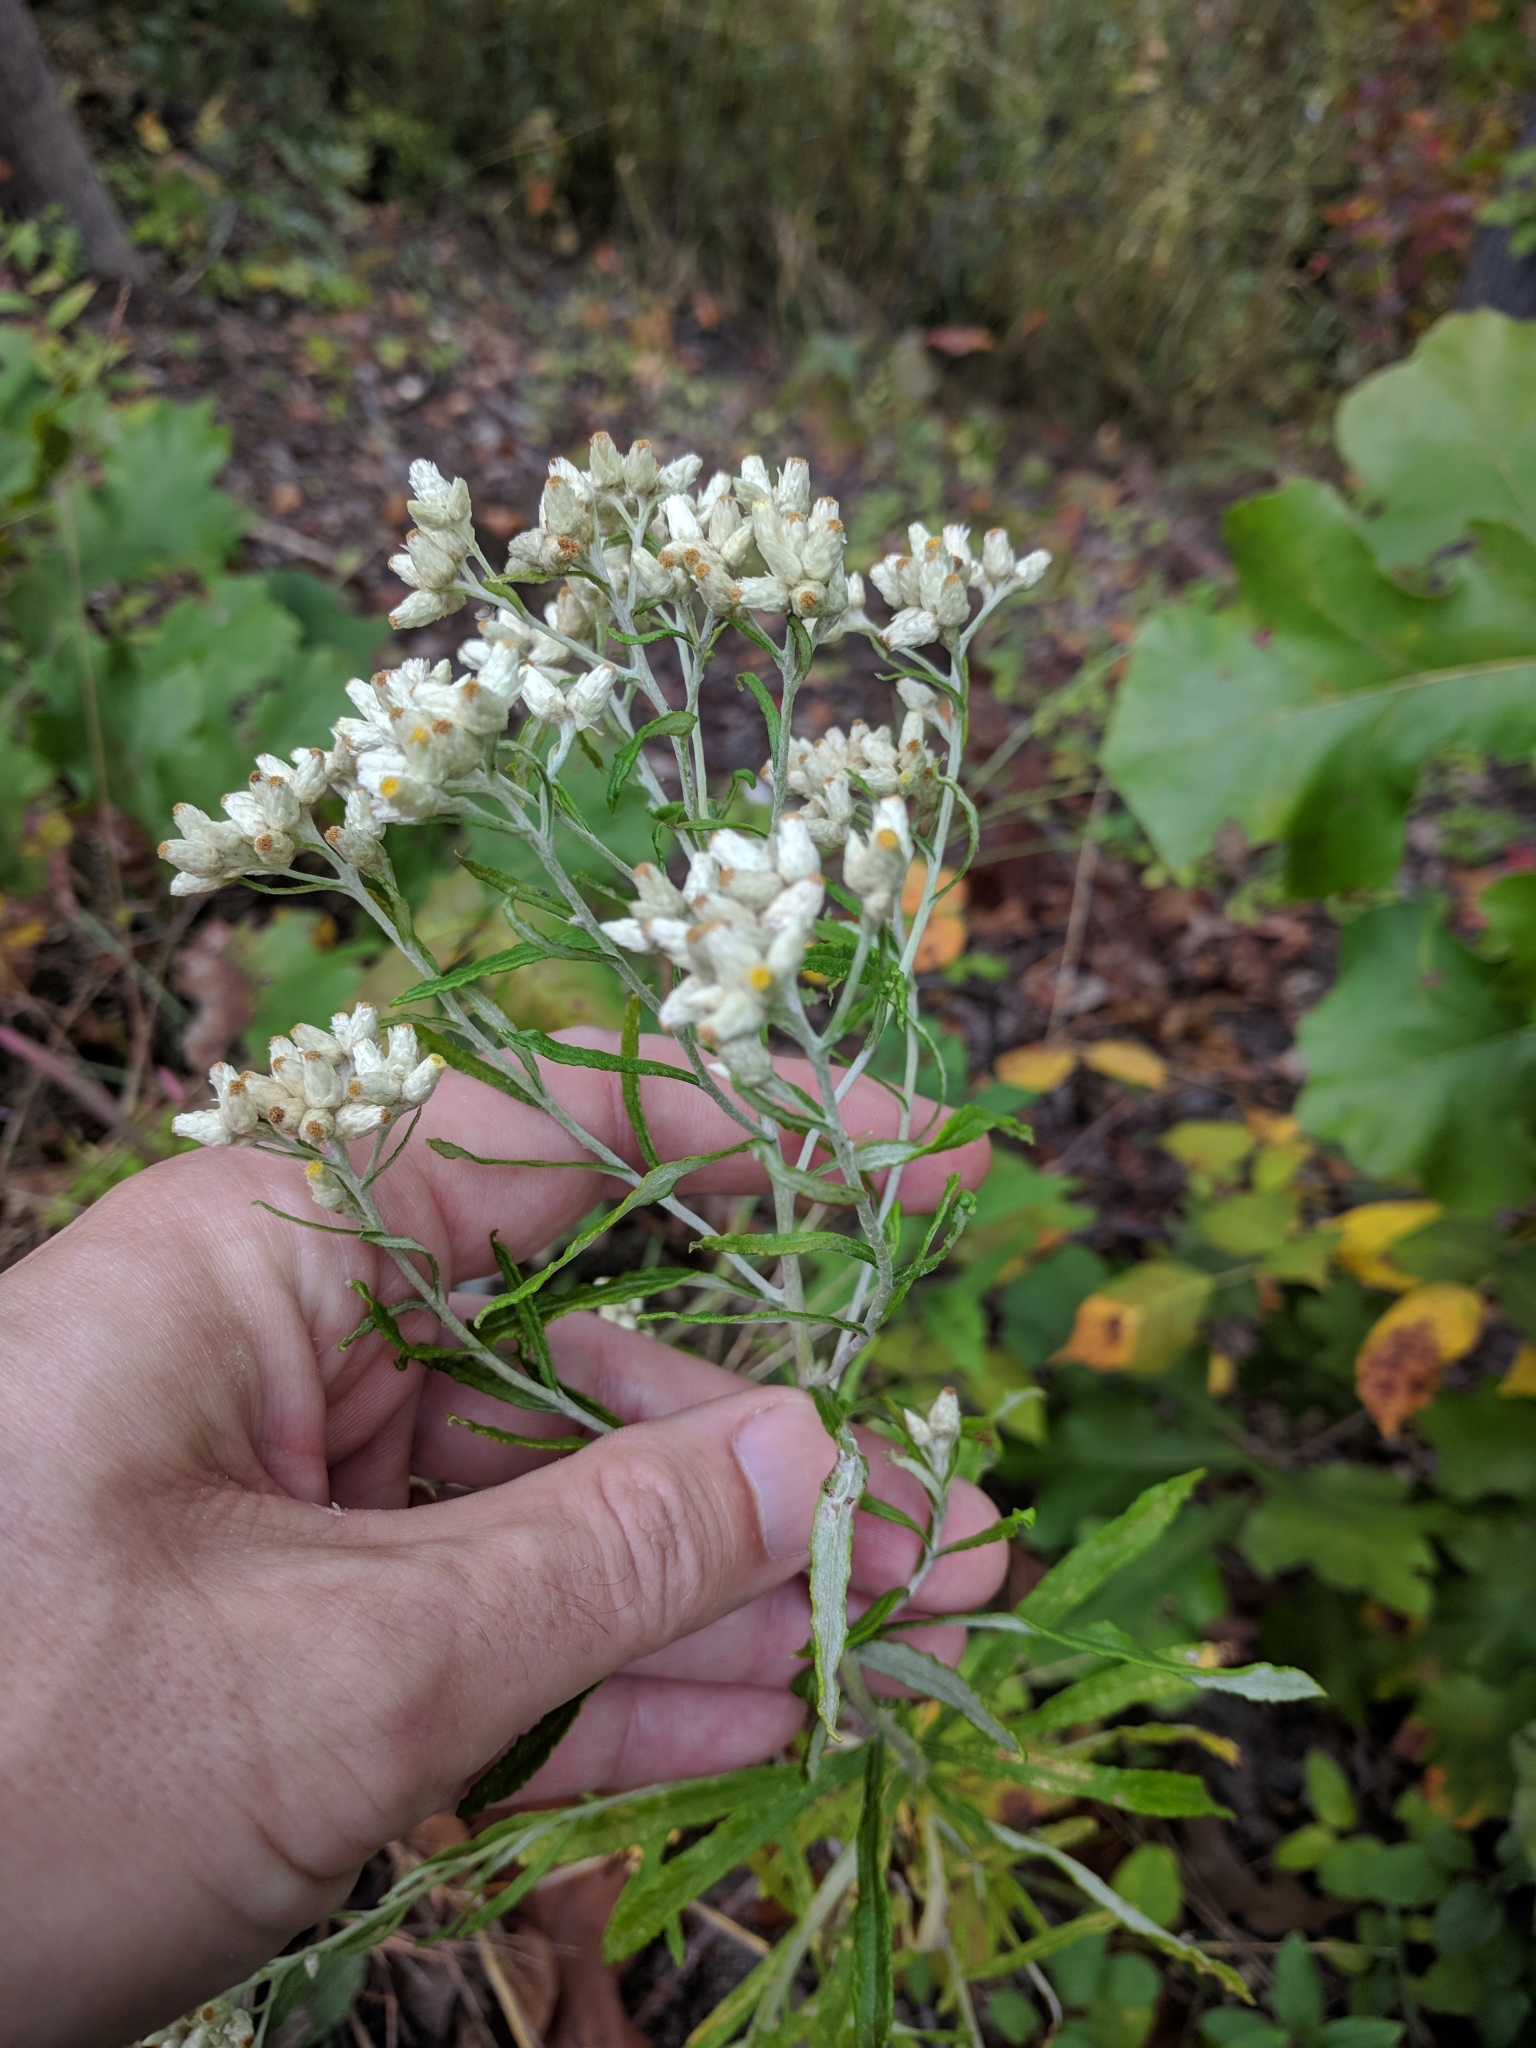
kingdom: Plantae
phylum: Tracheophyta
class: Magnoliopsida
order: Asterales
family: Asteraceae
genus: Pseudognaphalium
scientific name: Pseudognaphalium obtusifolium
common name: Eastern rabbit-tobacco
